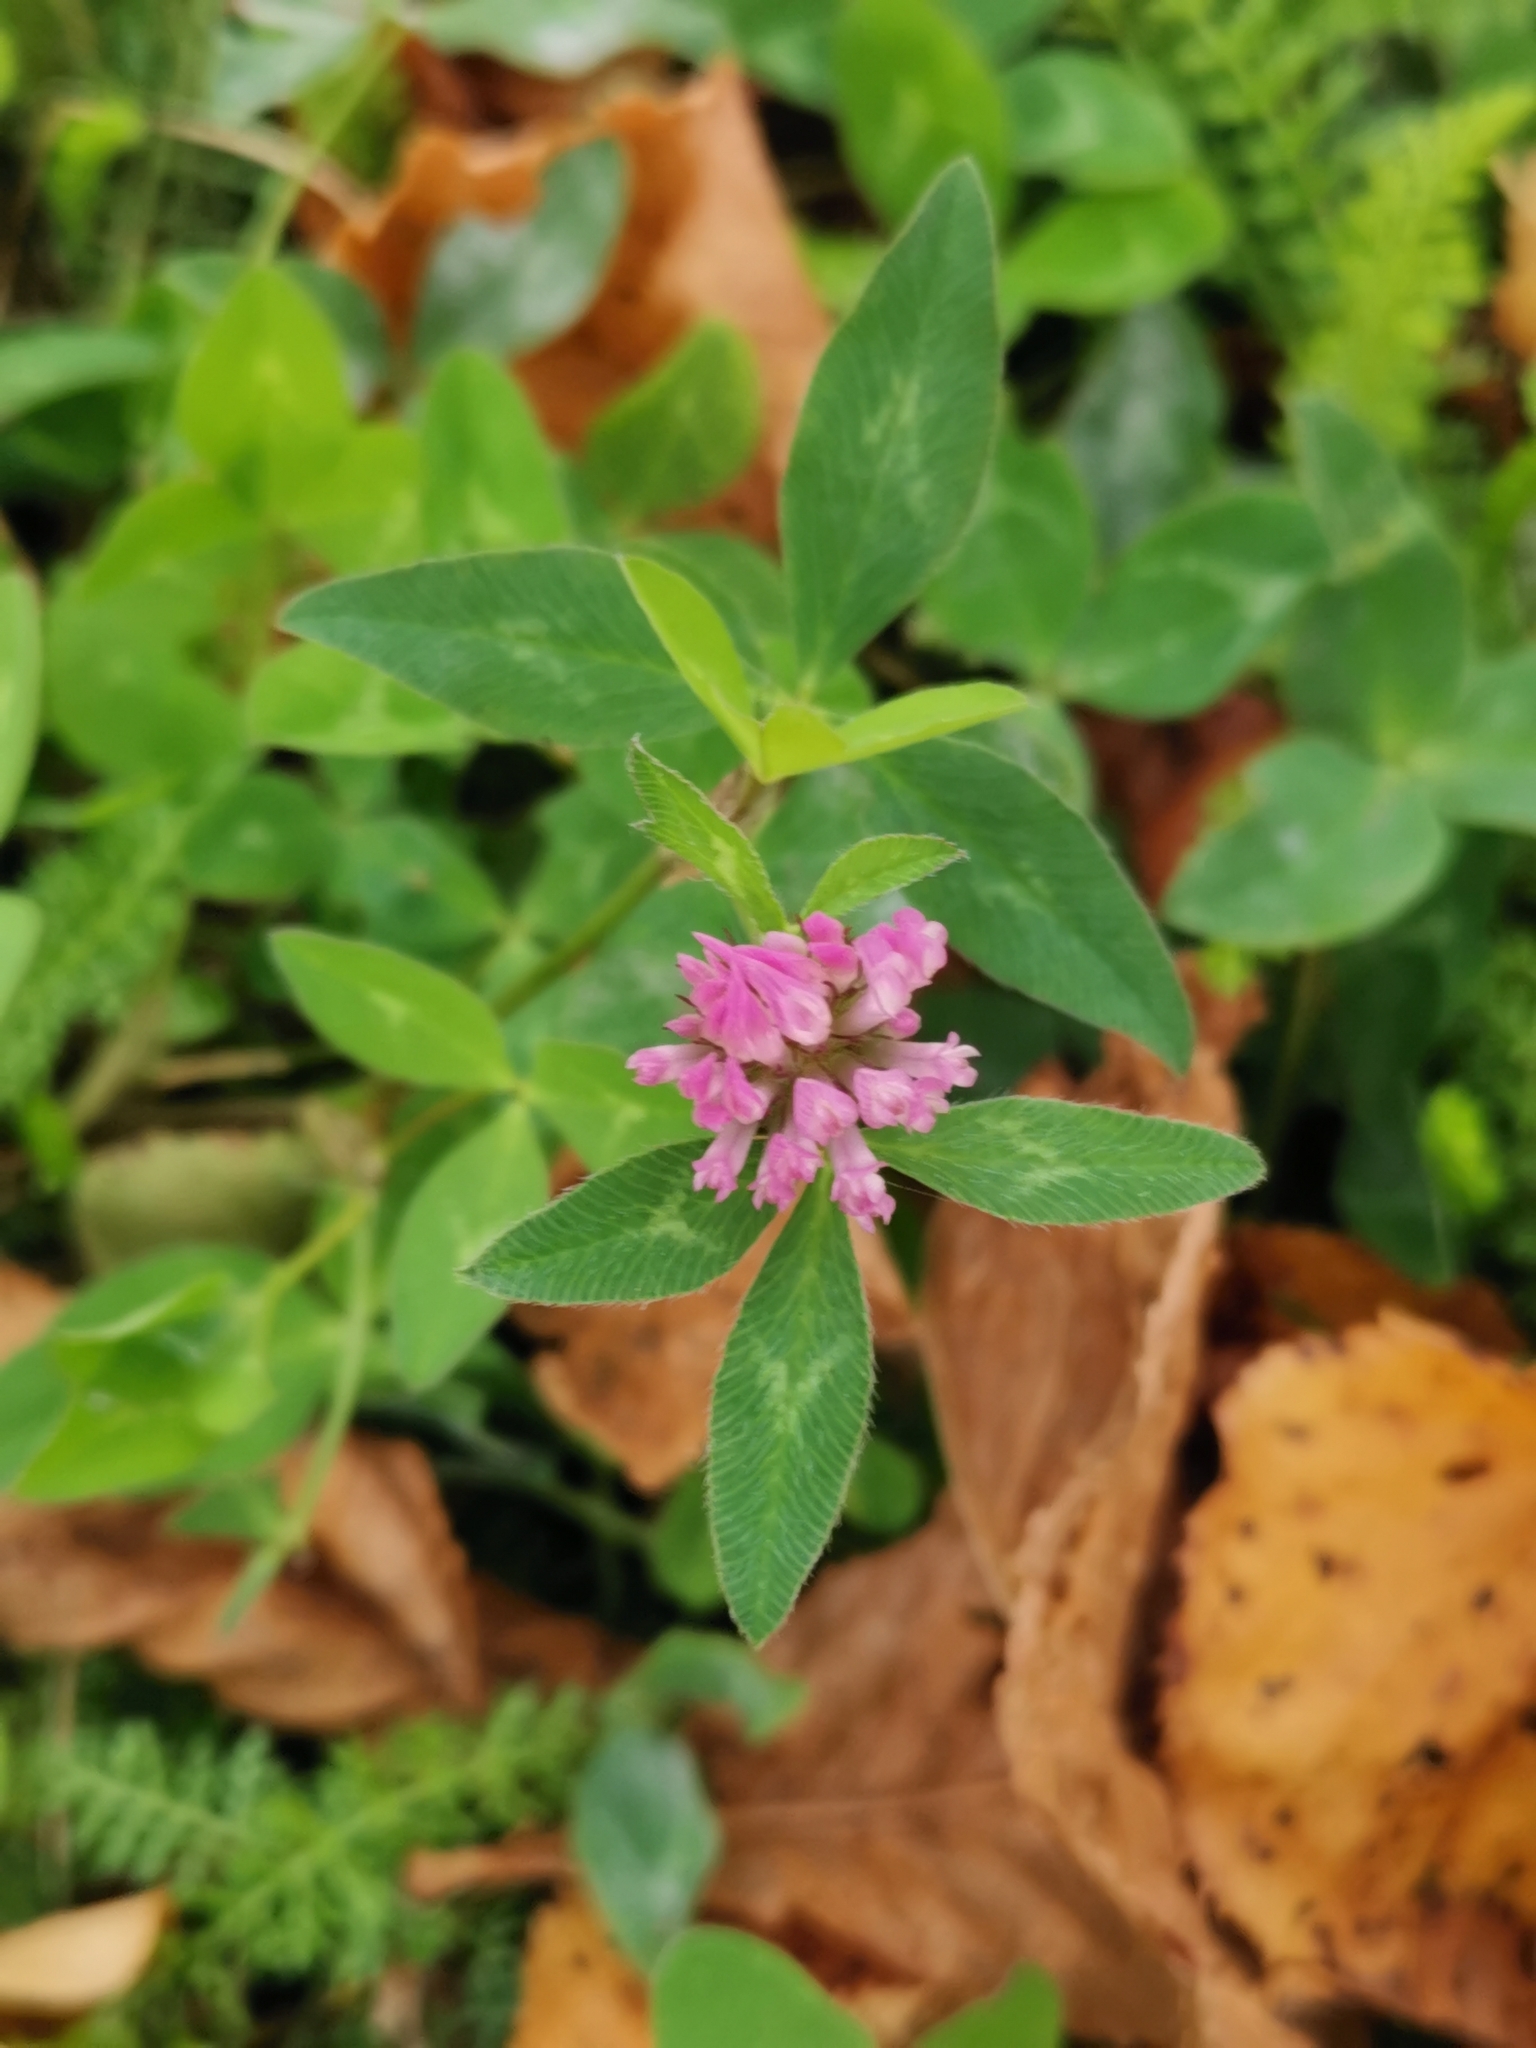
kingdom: Plantae
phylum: Tracheophyta
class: Magnoliopsida
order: Fabales
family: Fabaceae
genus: Trifolium
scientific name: Trifolium pratense
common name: Red clover
